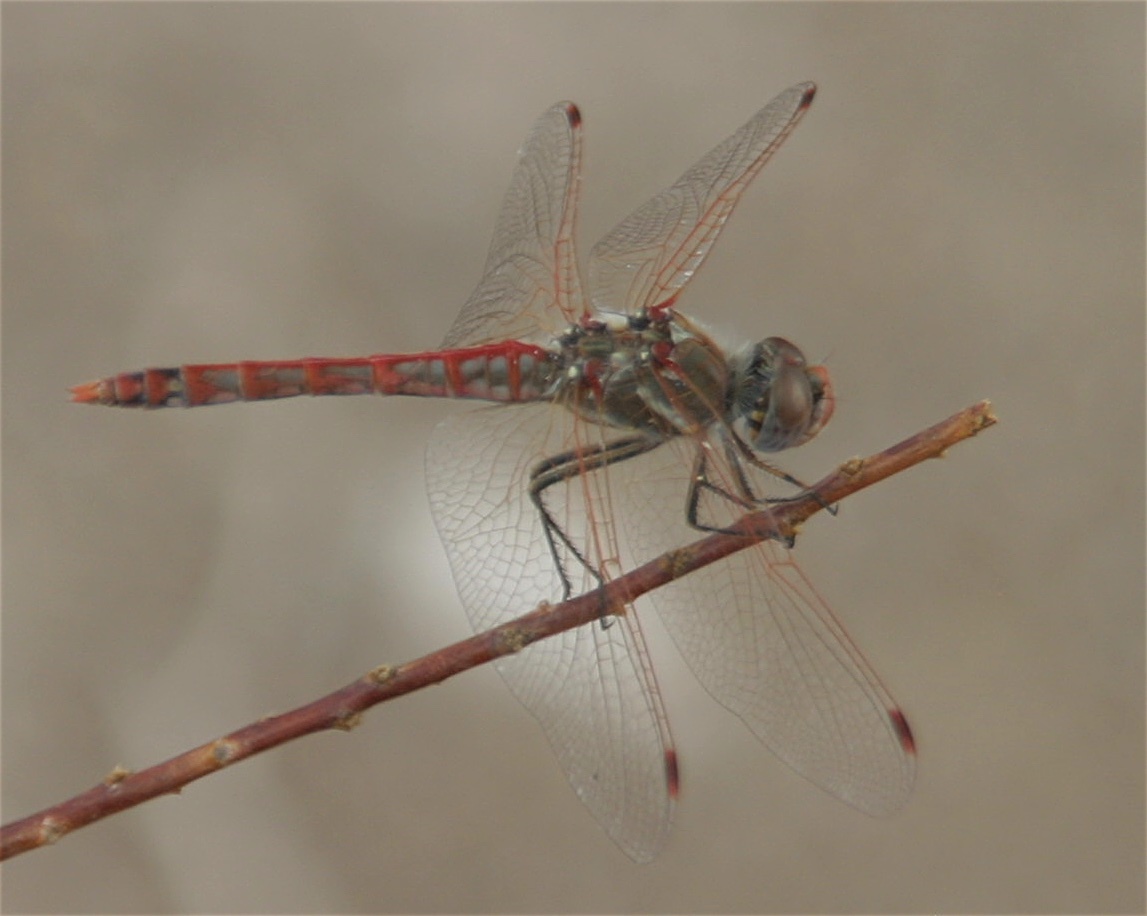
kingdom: Animalia
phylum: Arthropoda
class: Insecta
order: Odonata
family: Libellulidae
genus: Sympetrum
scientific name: Sympetrum corruptum
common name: Variegated meadowhawk
